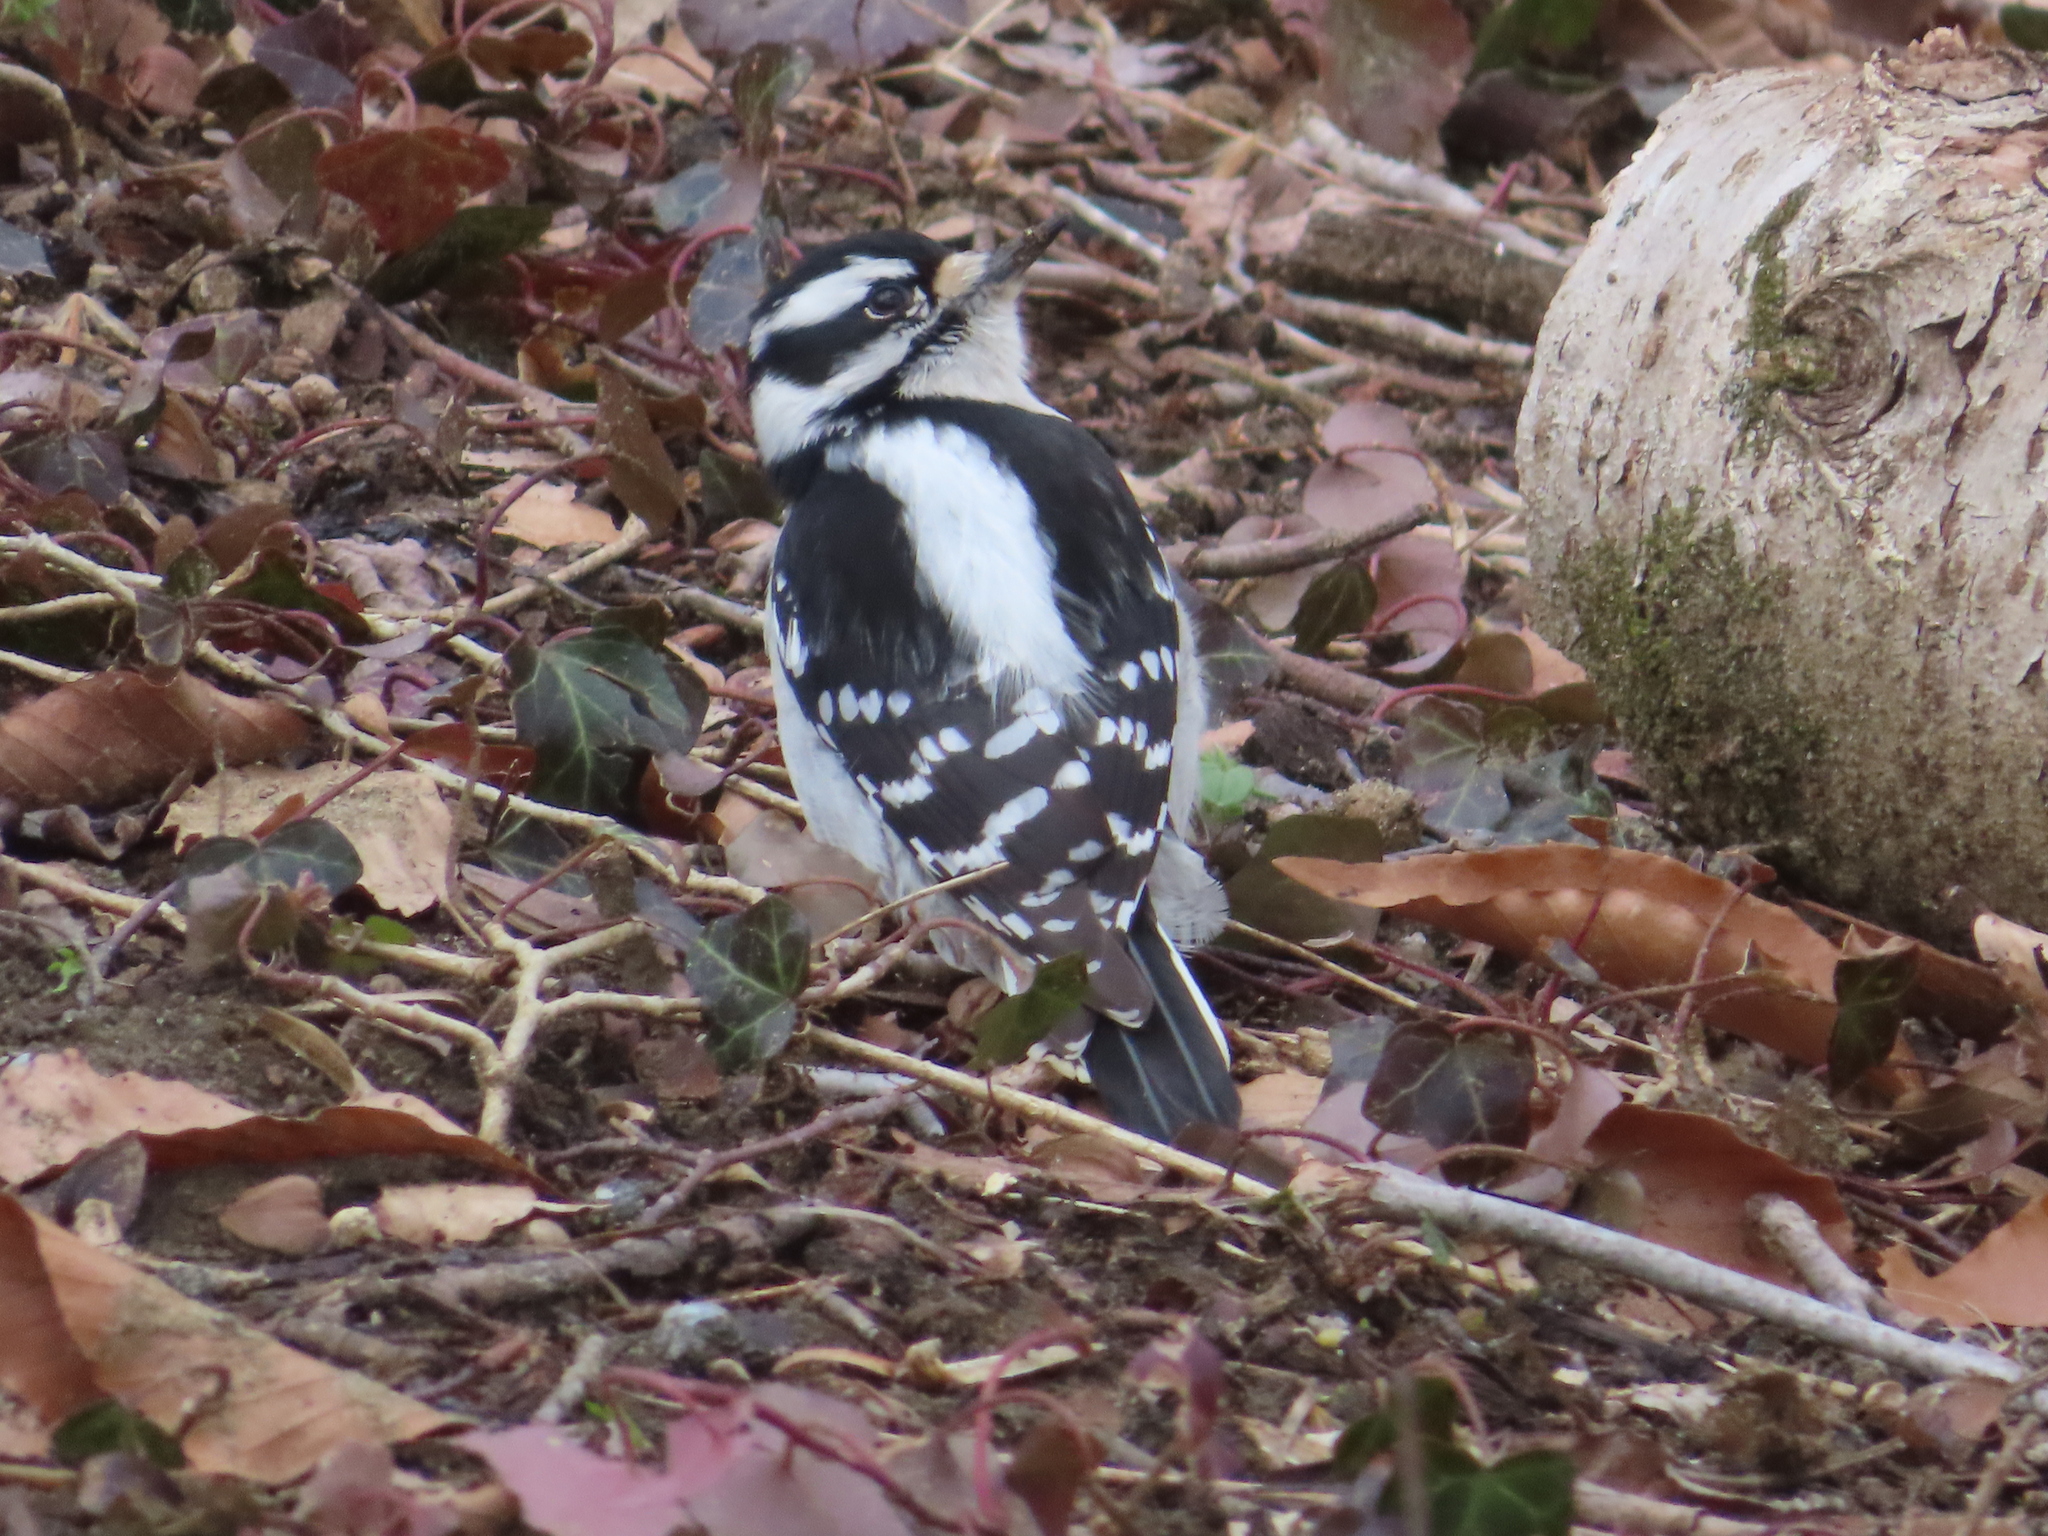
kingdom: Animalia
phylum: Chordata
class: Aves
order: Piciformes
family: Picidae
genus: Dryobates
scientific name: Dryobates pubescens
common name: Downy woodpecker
